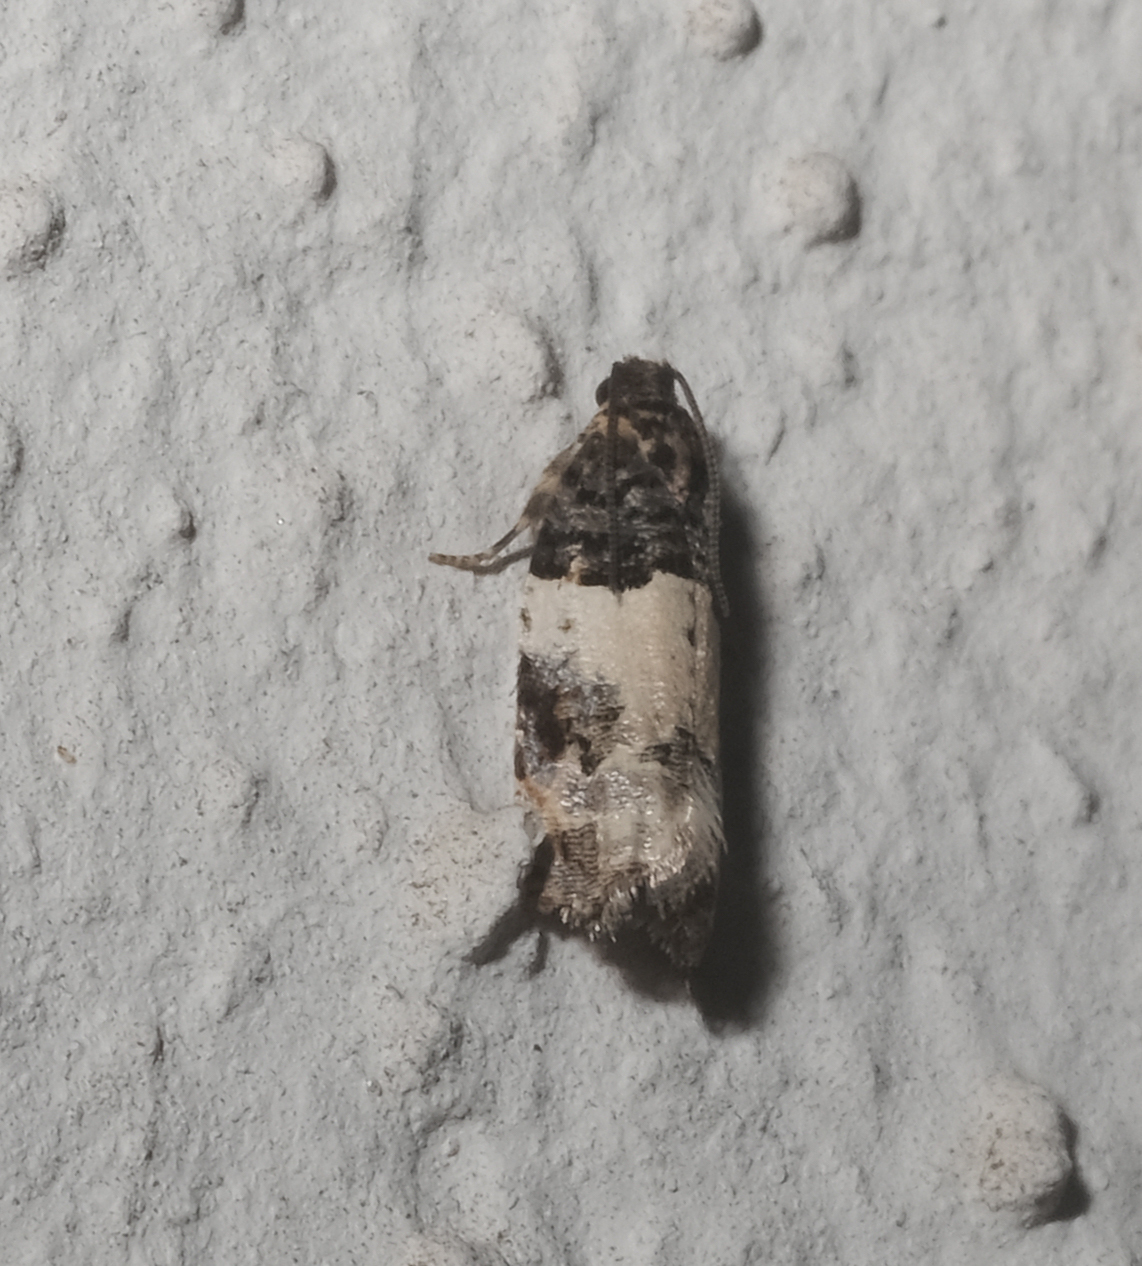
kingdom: Animalia
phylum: Arthropoda
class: Insecta
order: Lepidoptera
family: Tortricidae
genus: Gypsonoma
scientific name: Gypsonoma sociana
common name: White cloaked shoot
